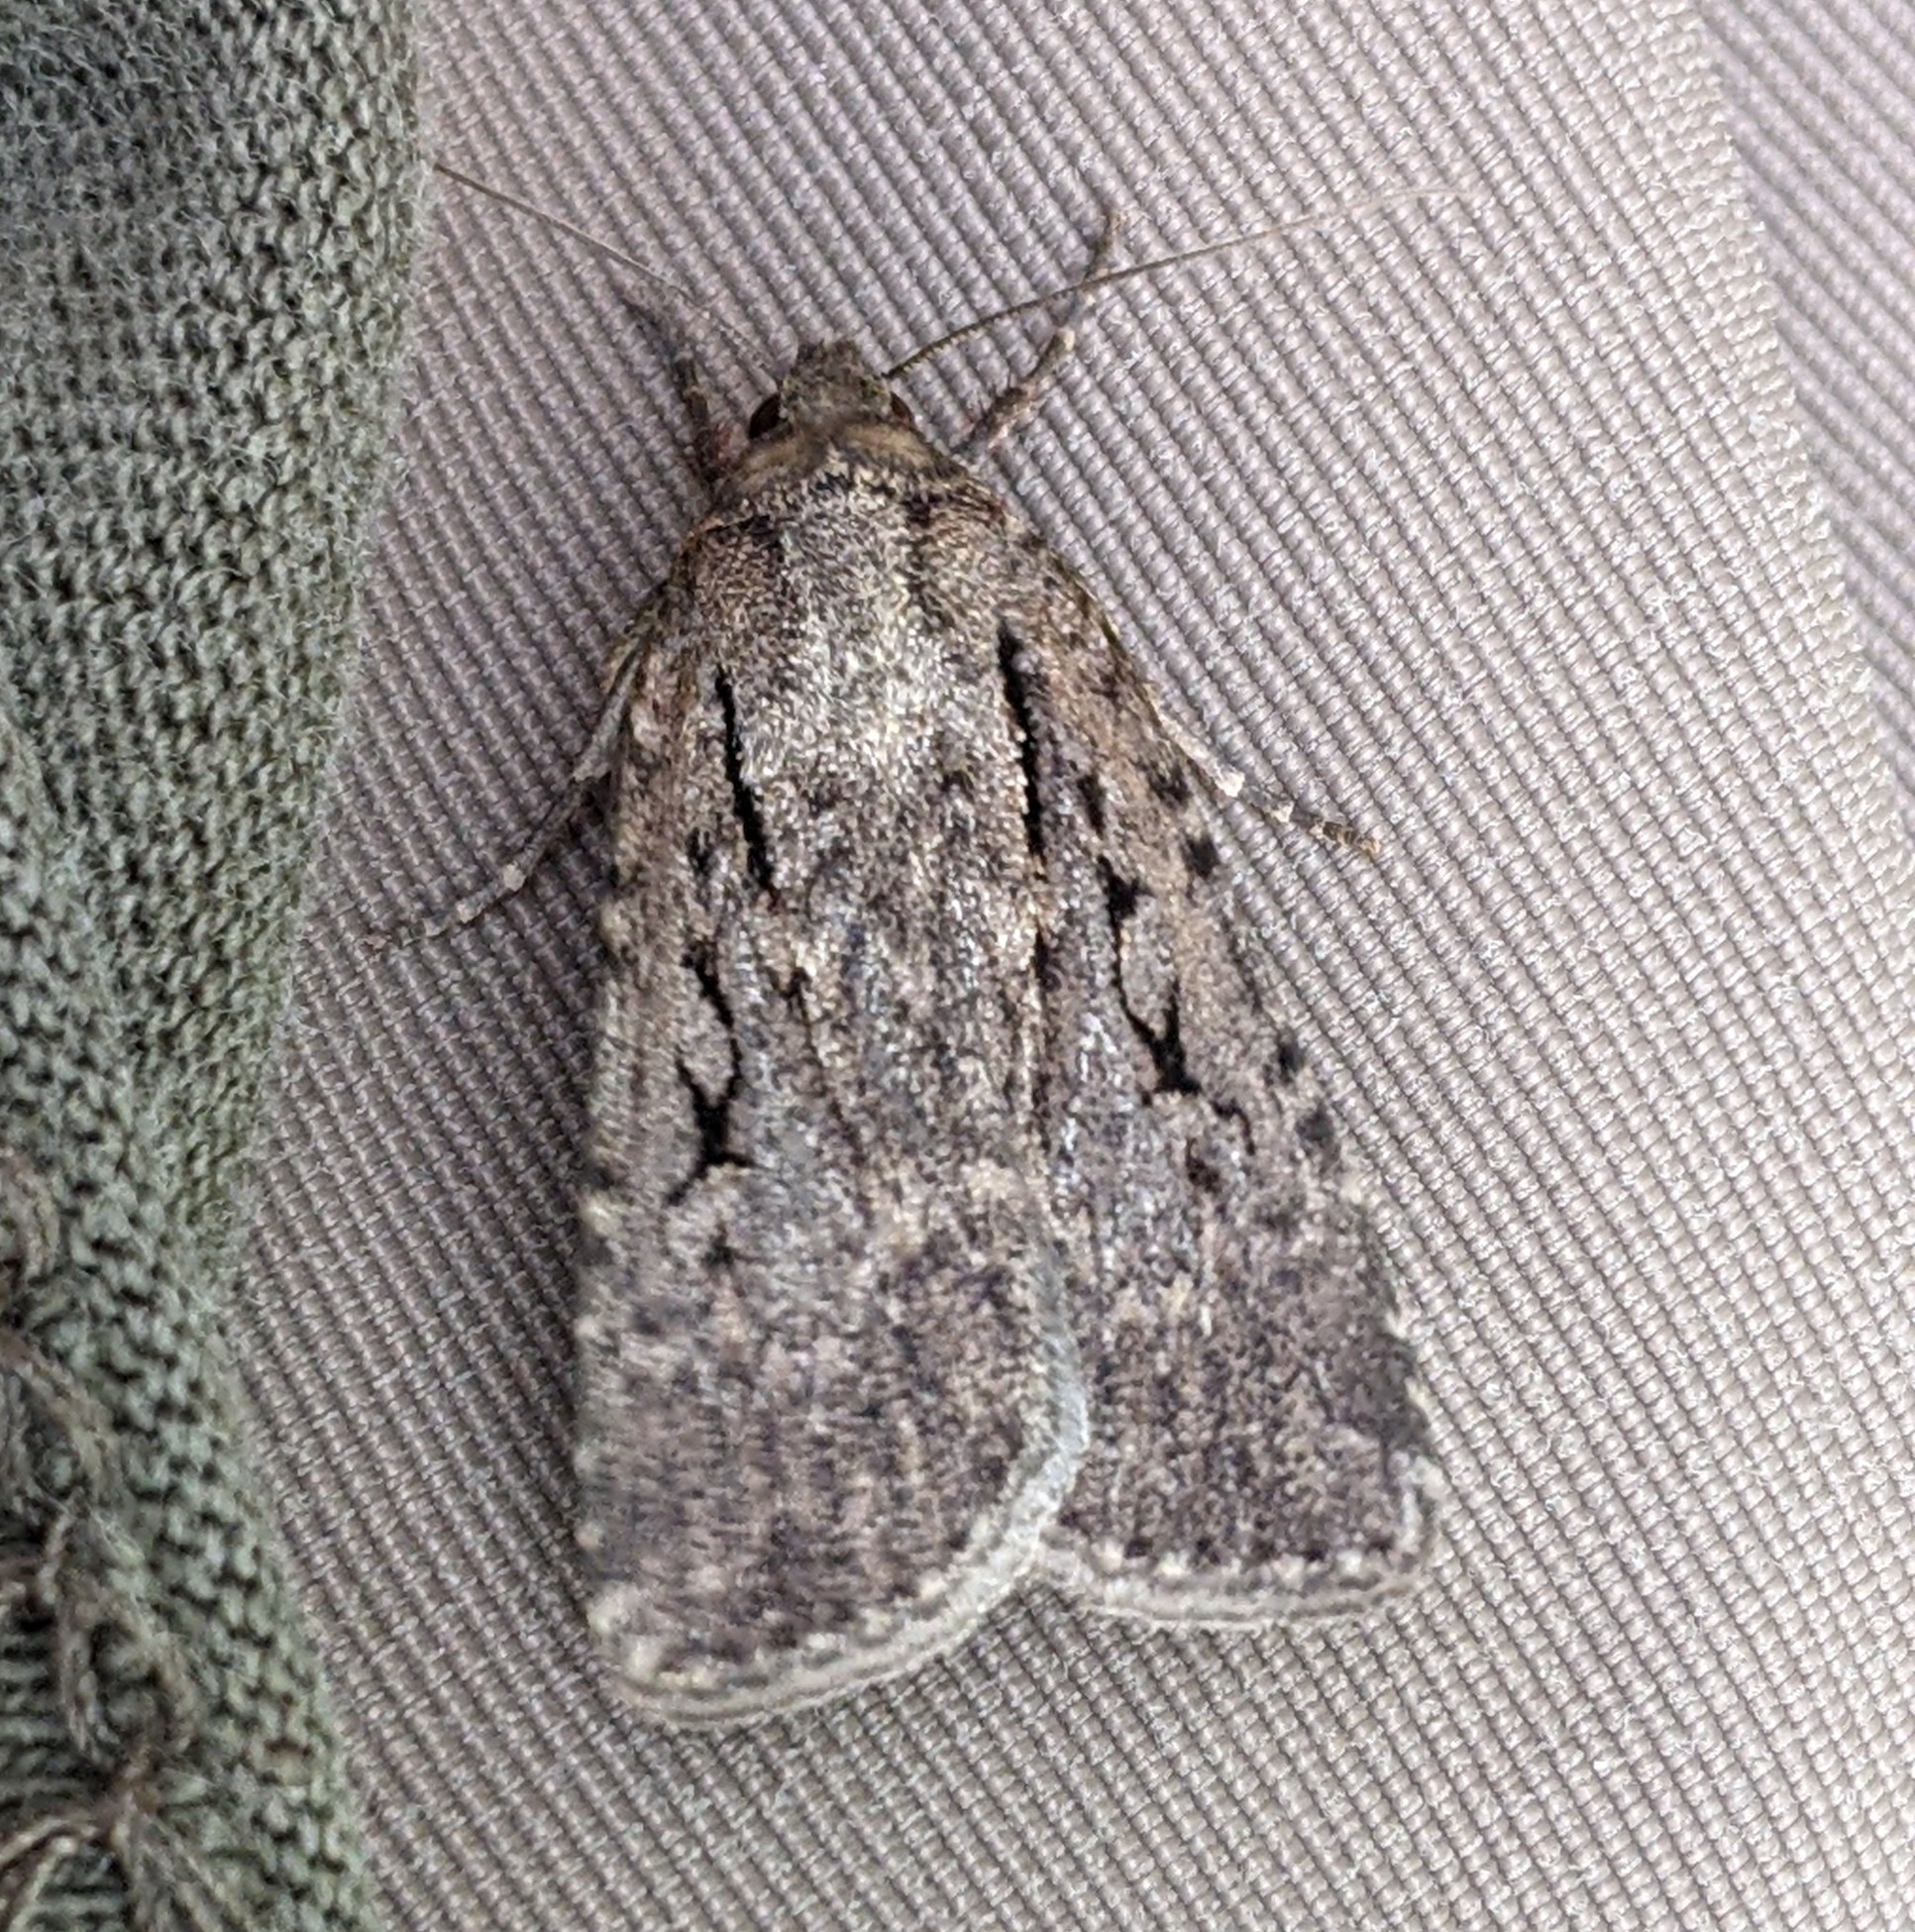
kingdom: Animalia
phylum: Arthropoda
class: Insecta
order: Lepidoptera
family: Noctuidae
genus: Spaelotis
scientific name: Spaelotis bicava
